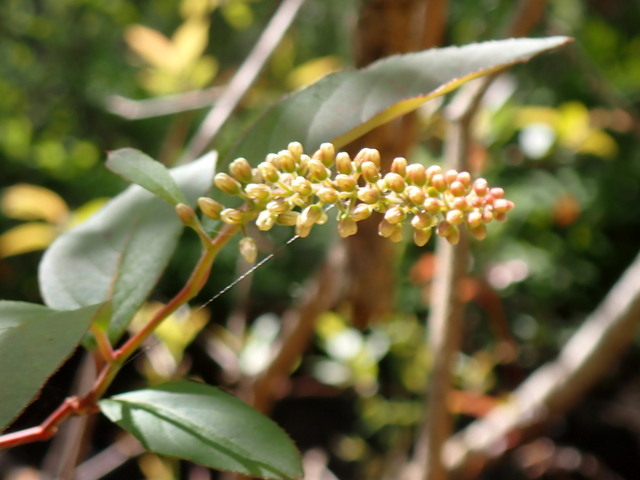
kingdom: Plantae
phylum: Tracheophyta
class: Magnoliopsida
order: Saxifragales
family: Iteaceae
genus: Itea
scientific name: Itea virginica
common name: Sweetspire
